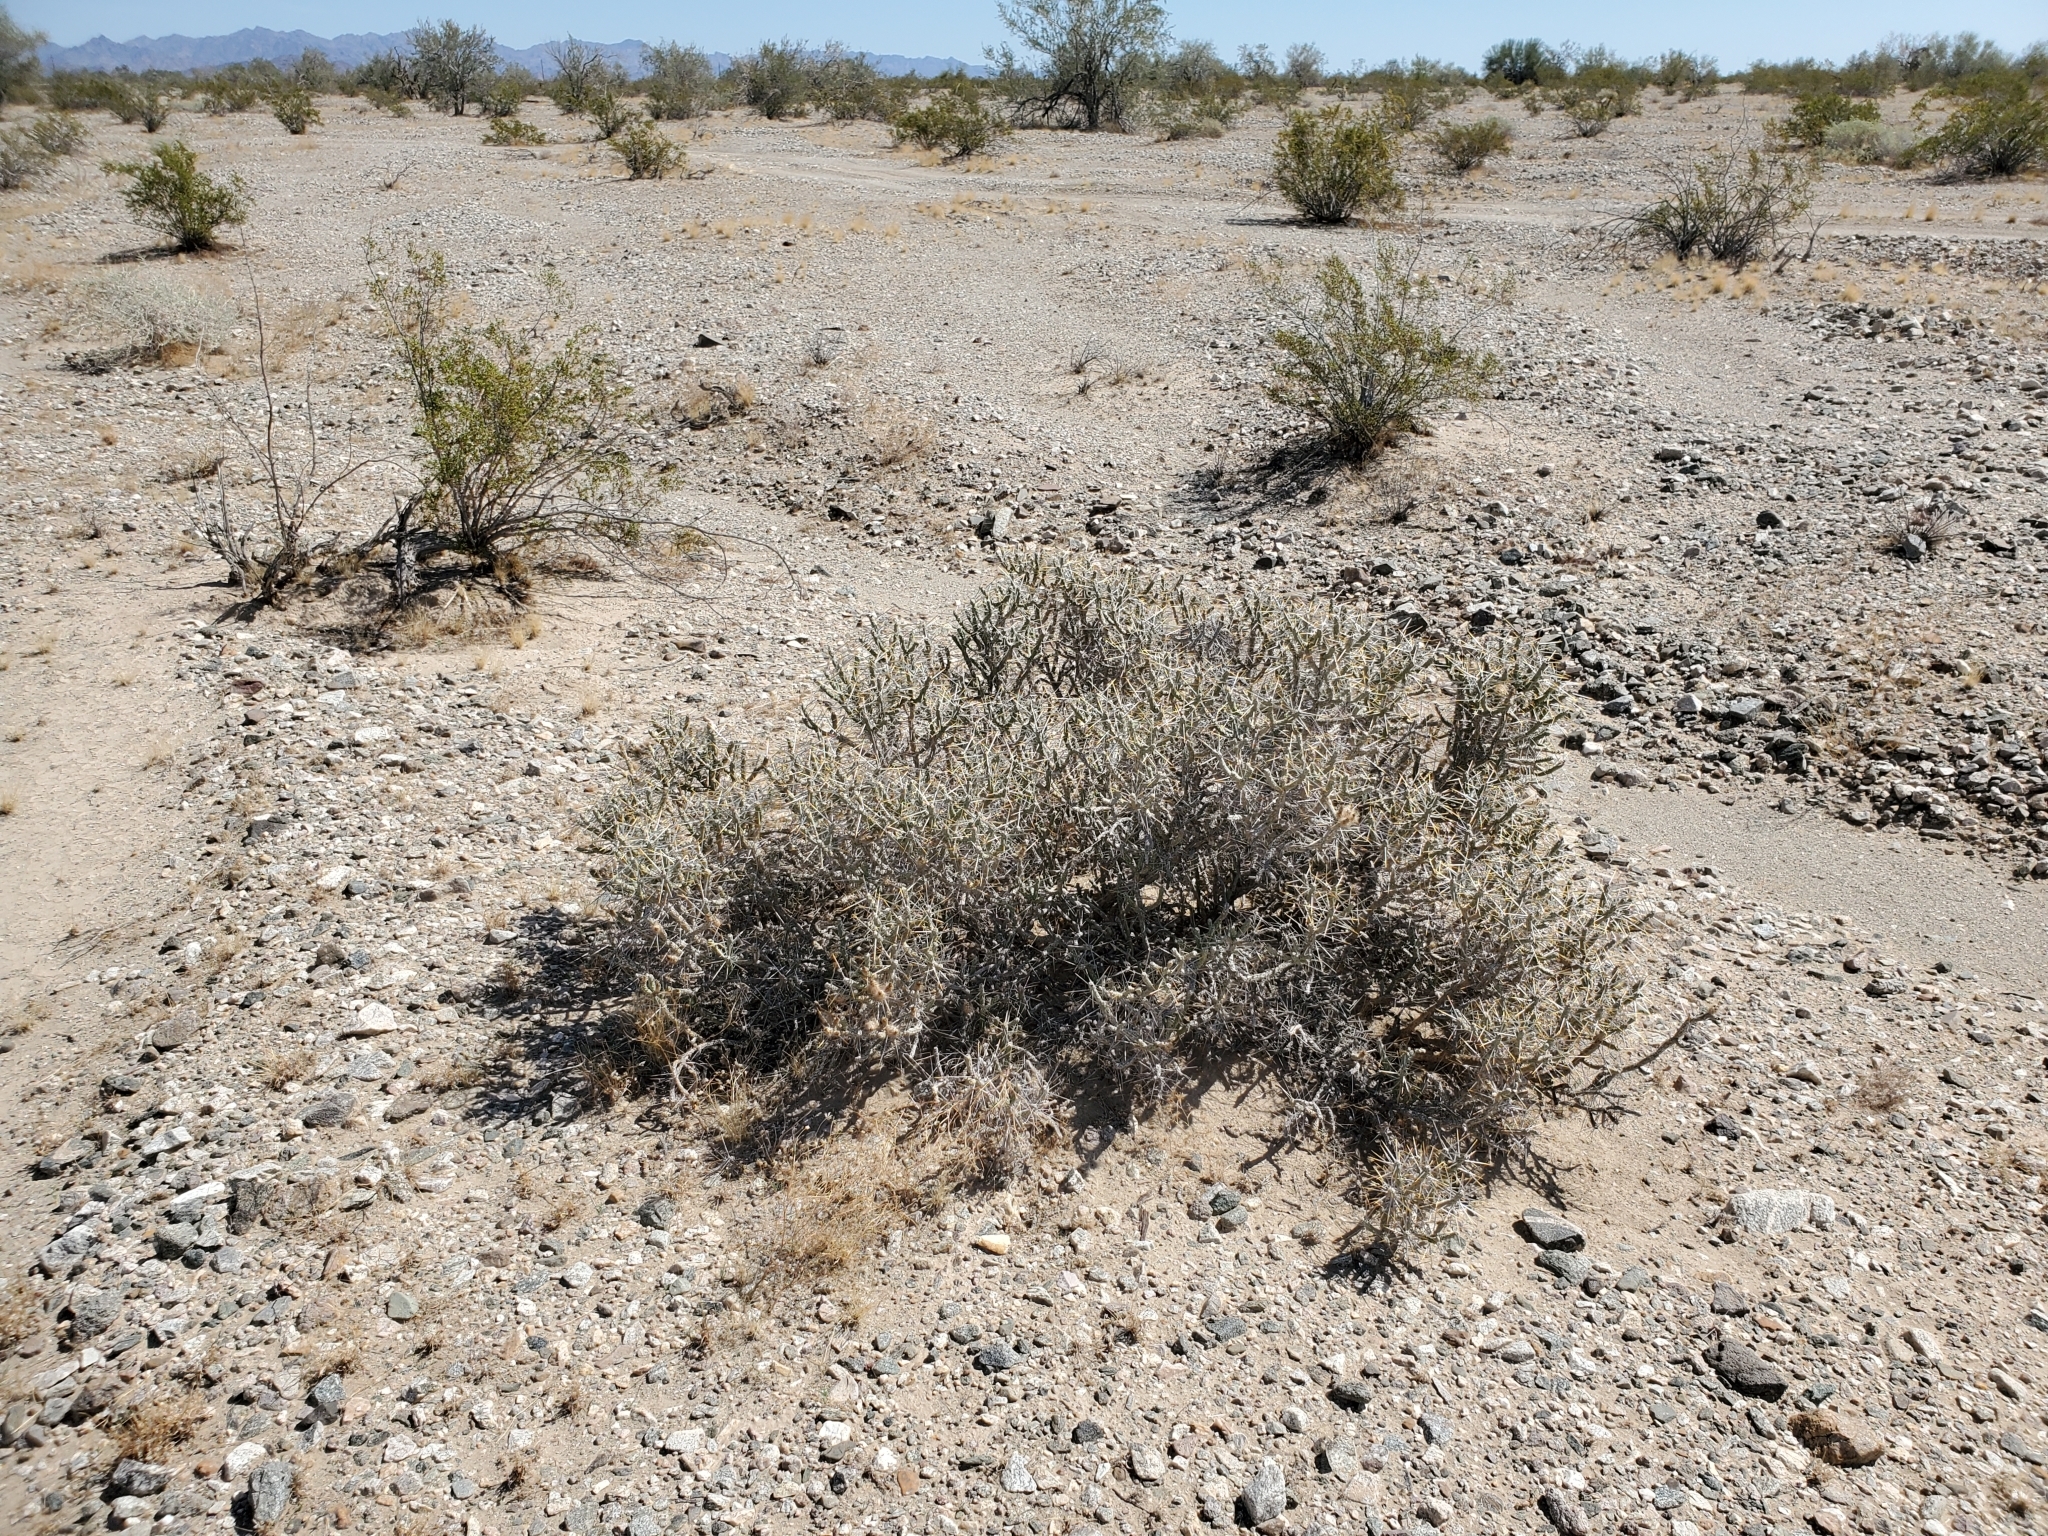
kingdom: Plantae
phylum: Tracheophyta
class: Magnoliopsida
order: Caryophyllales
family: Cactaceae
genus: Cylindropuntia
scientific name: Cylindropuntia ramosissima
